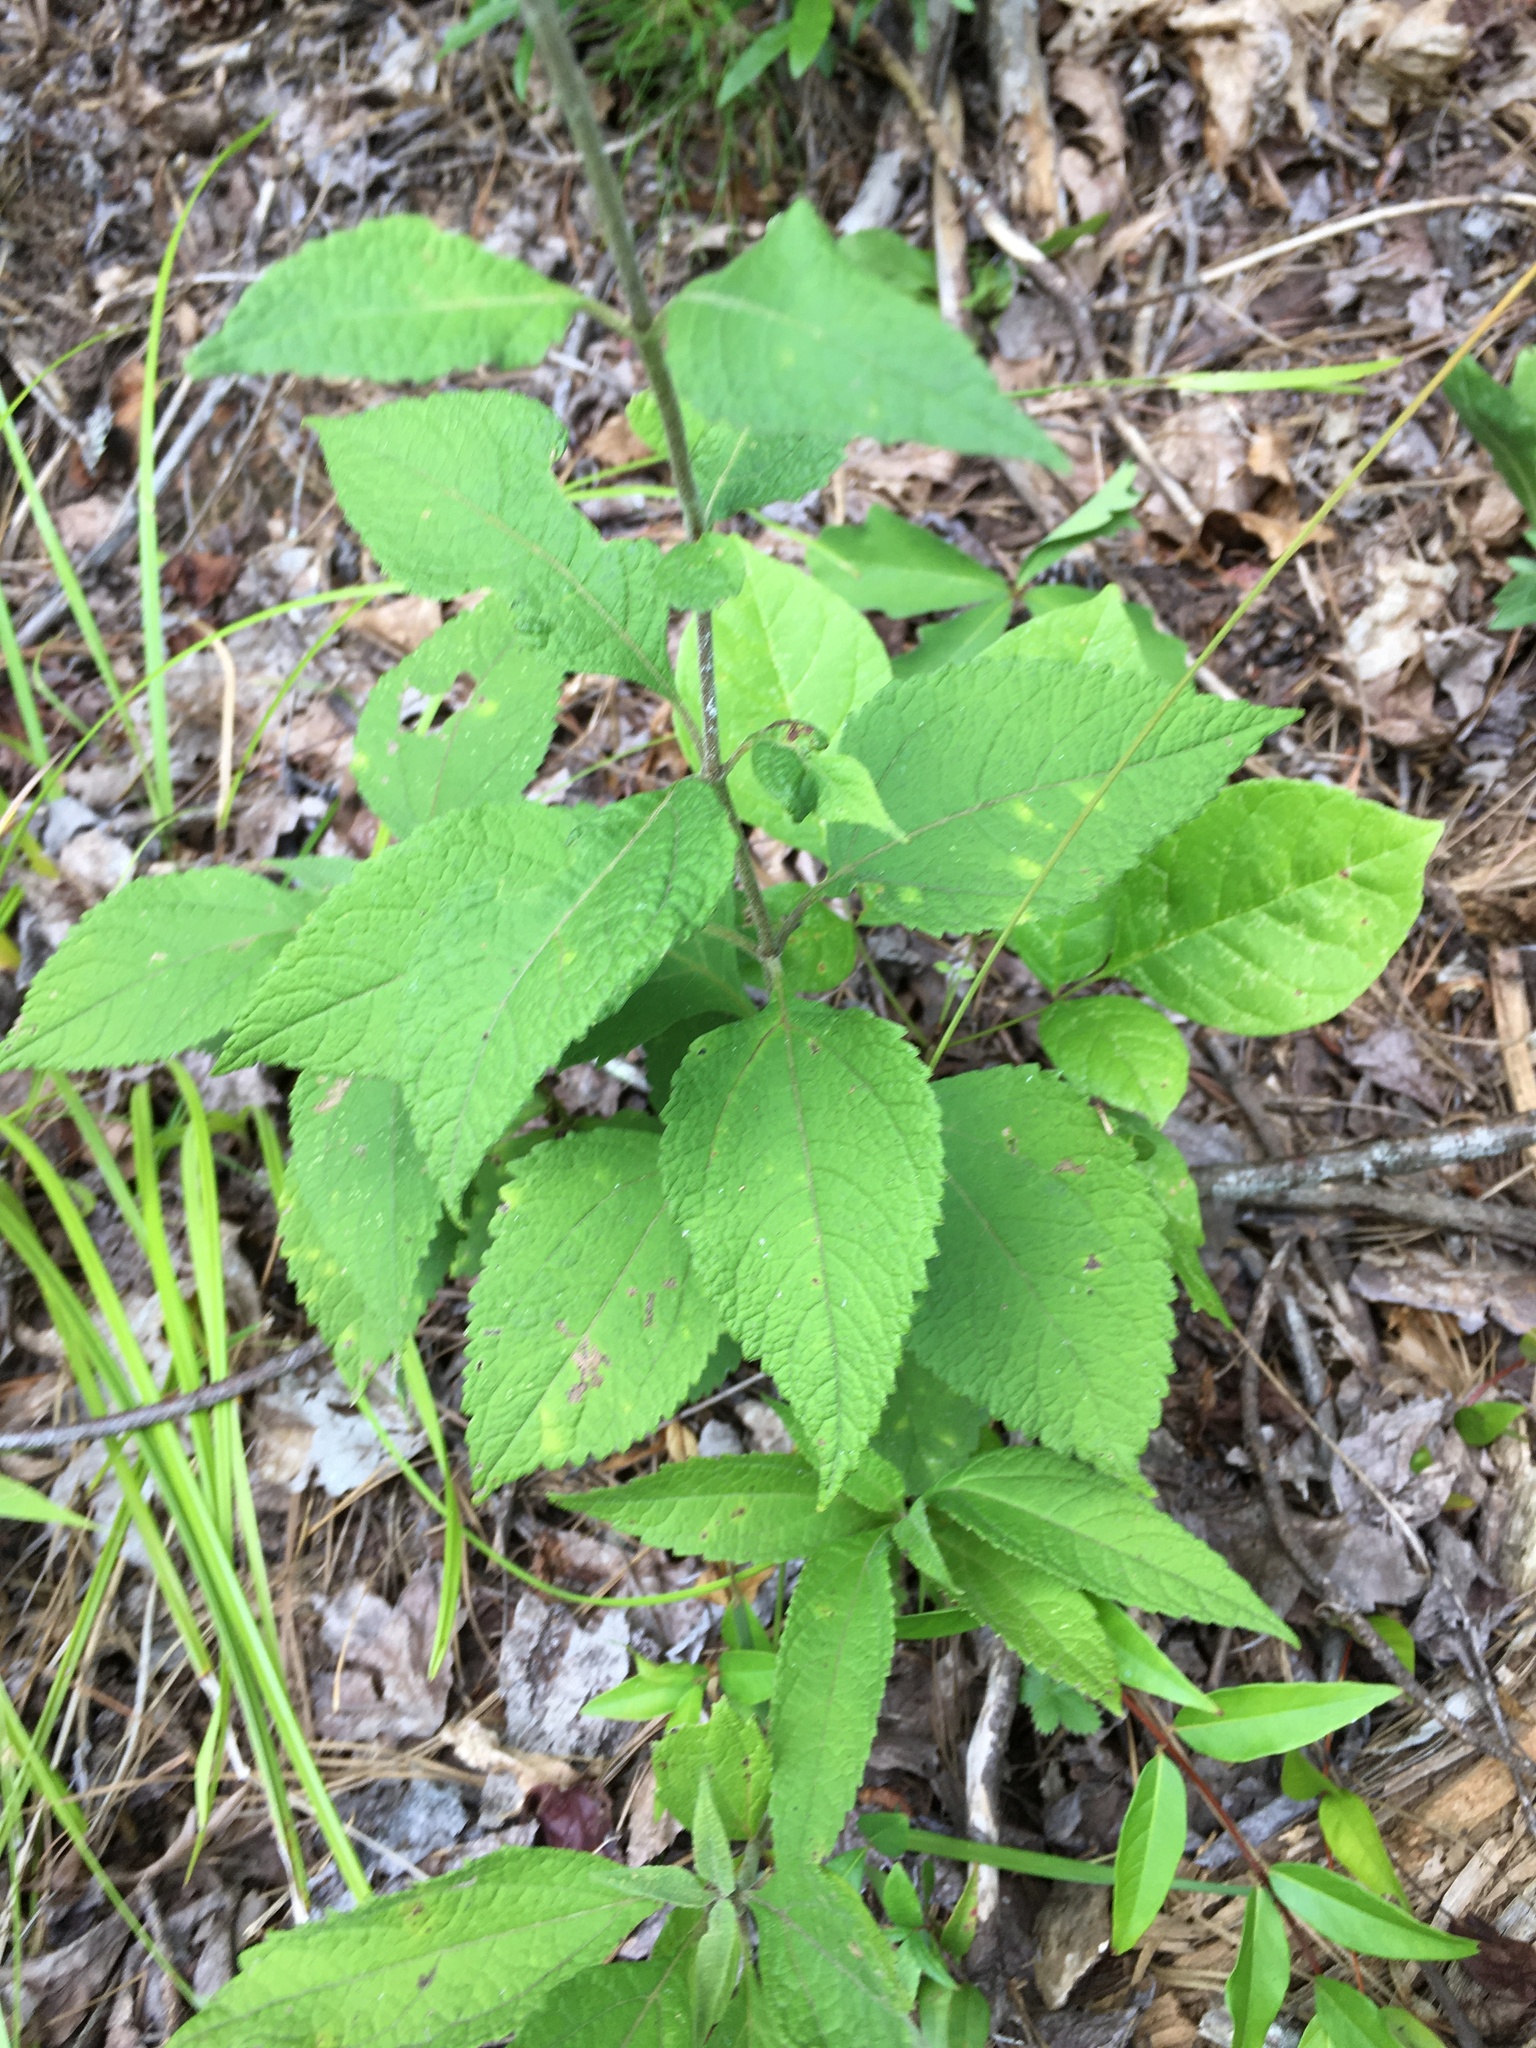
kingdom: Plantae
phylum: Tracheophyta
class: Magnoliopsida
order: Asterales
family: Asteraceae
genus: Eutrochium
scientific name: Eutrochium purpureum
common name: Gravelroot
